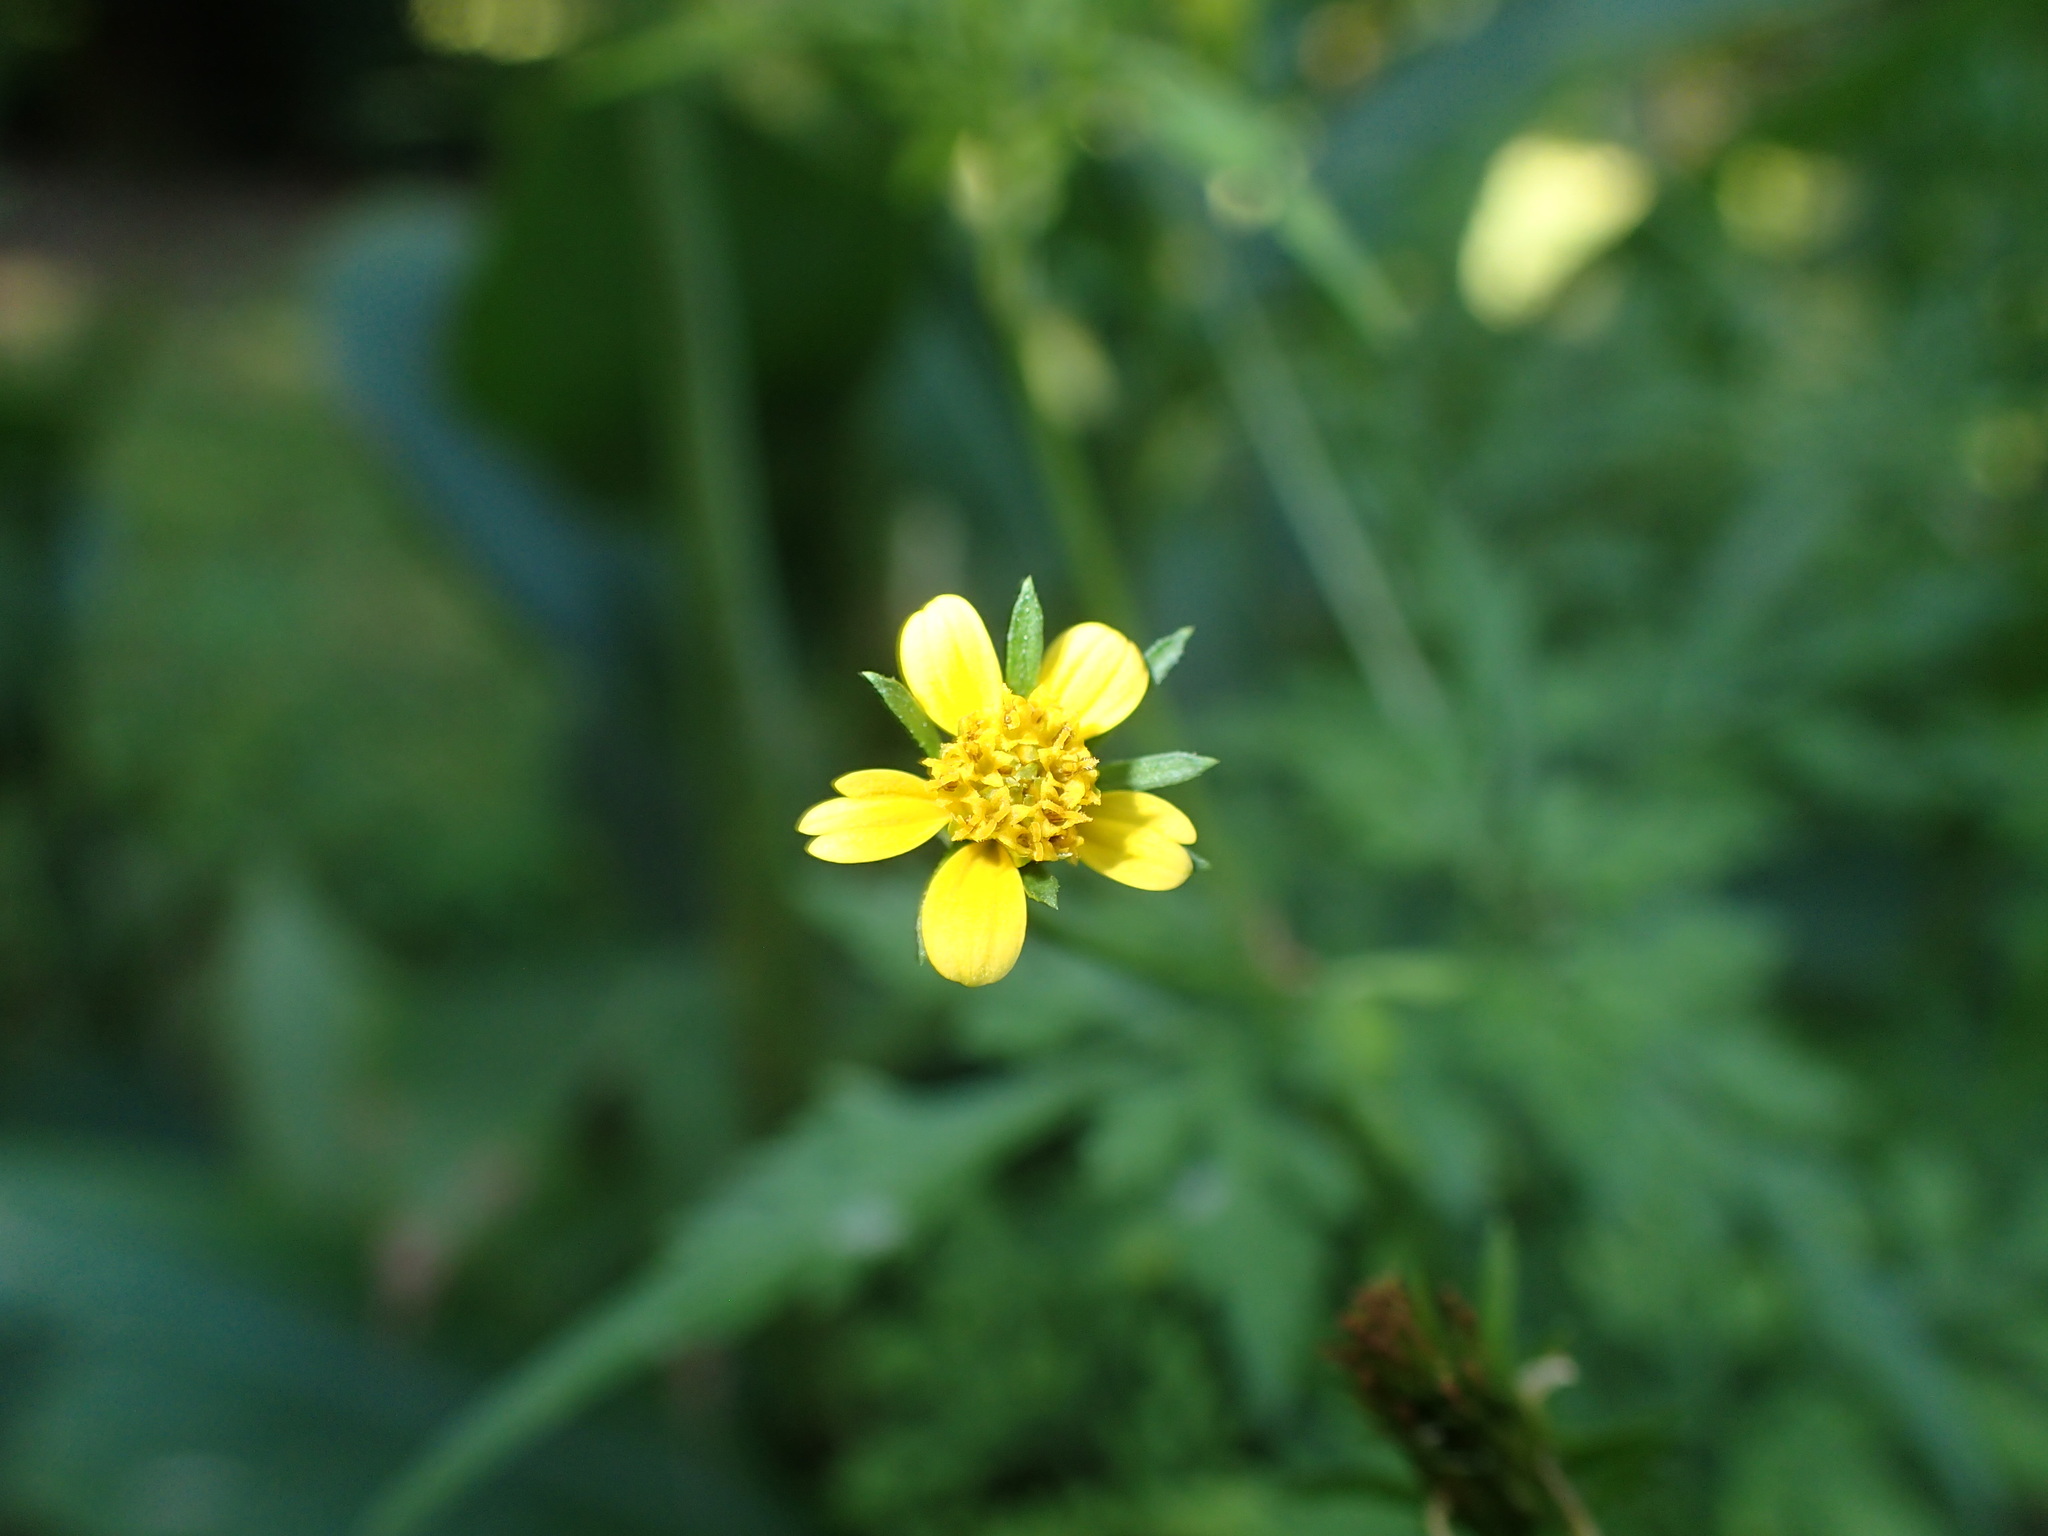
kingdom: Plantae
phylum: Tracheophyta
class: Magnoliopsida
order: Asterales
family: Asteraceae
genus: Bidens
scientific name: Bidens bipinnata
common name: Spanish-needles
